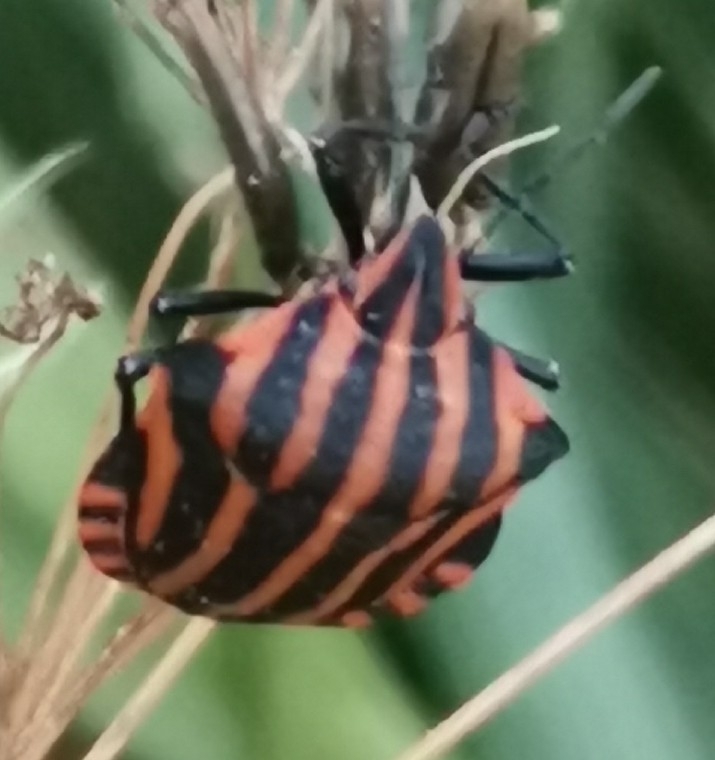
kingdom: Animalia
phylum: Arthropoda
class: Insecta
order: Hemiptera
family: Pentatomidae
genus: Graphosoma
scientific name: Graphosoma italicum
